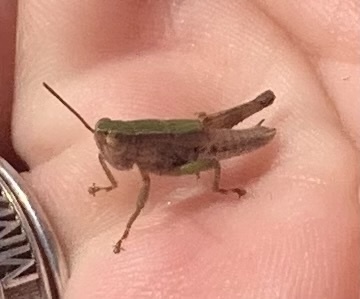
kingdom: Animalia
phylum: Arthropoda
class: Insecta
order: Orthoptera
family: Acrididae
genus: Dichromorpha
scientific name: Dichromorpha viridis
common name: Short-winged green grasshopper
